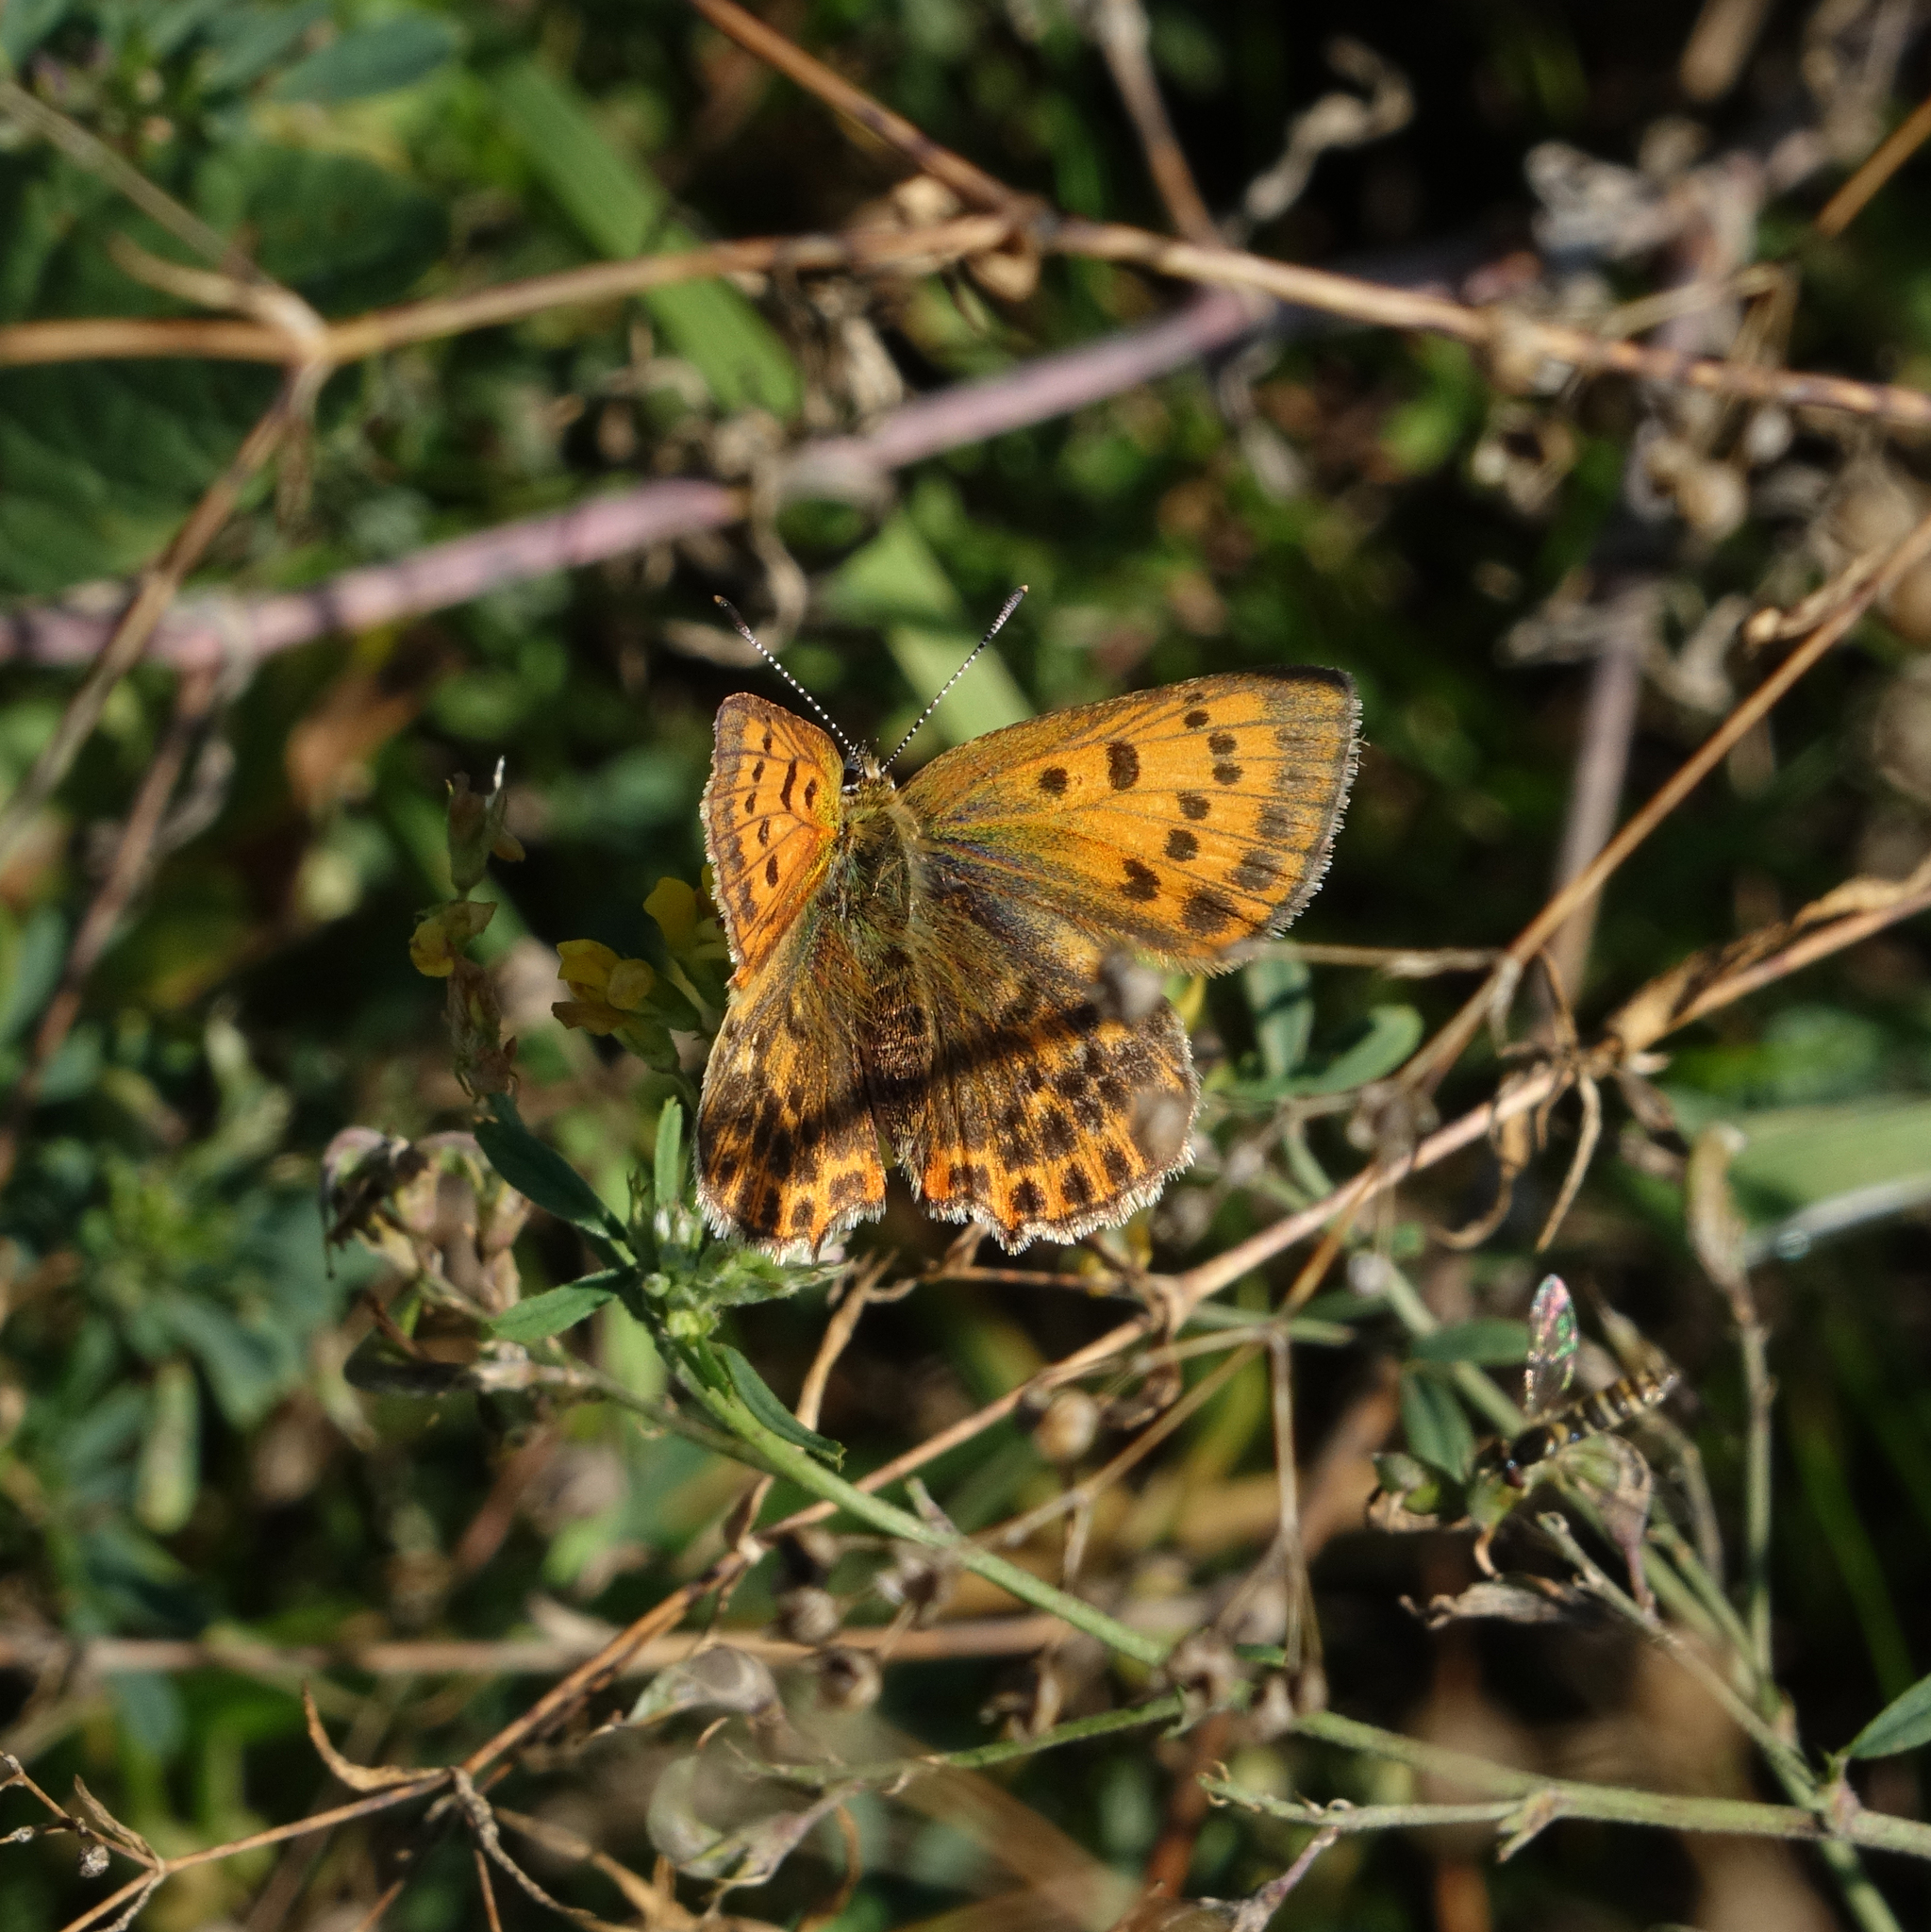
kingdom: Animalia
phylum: Arthropoda
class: Insecta
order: Lepidoptera
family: Lycaenidae
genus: Lycaena
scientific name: Lycaena virgaureae
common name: Scarce copper
